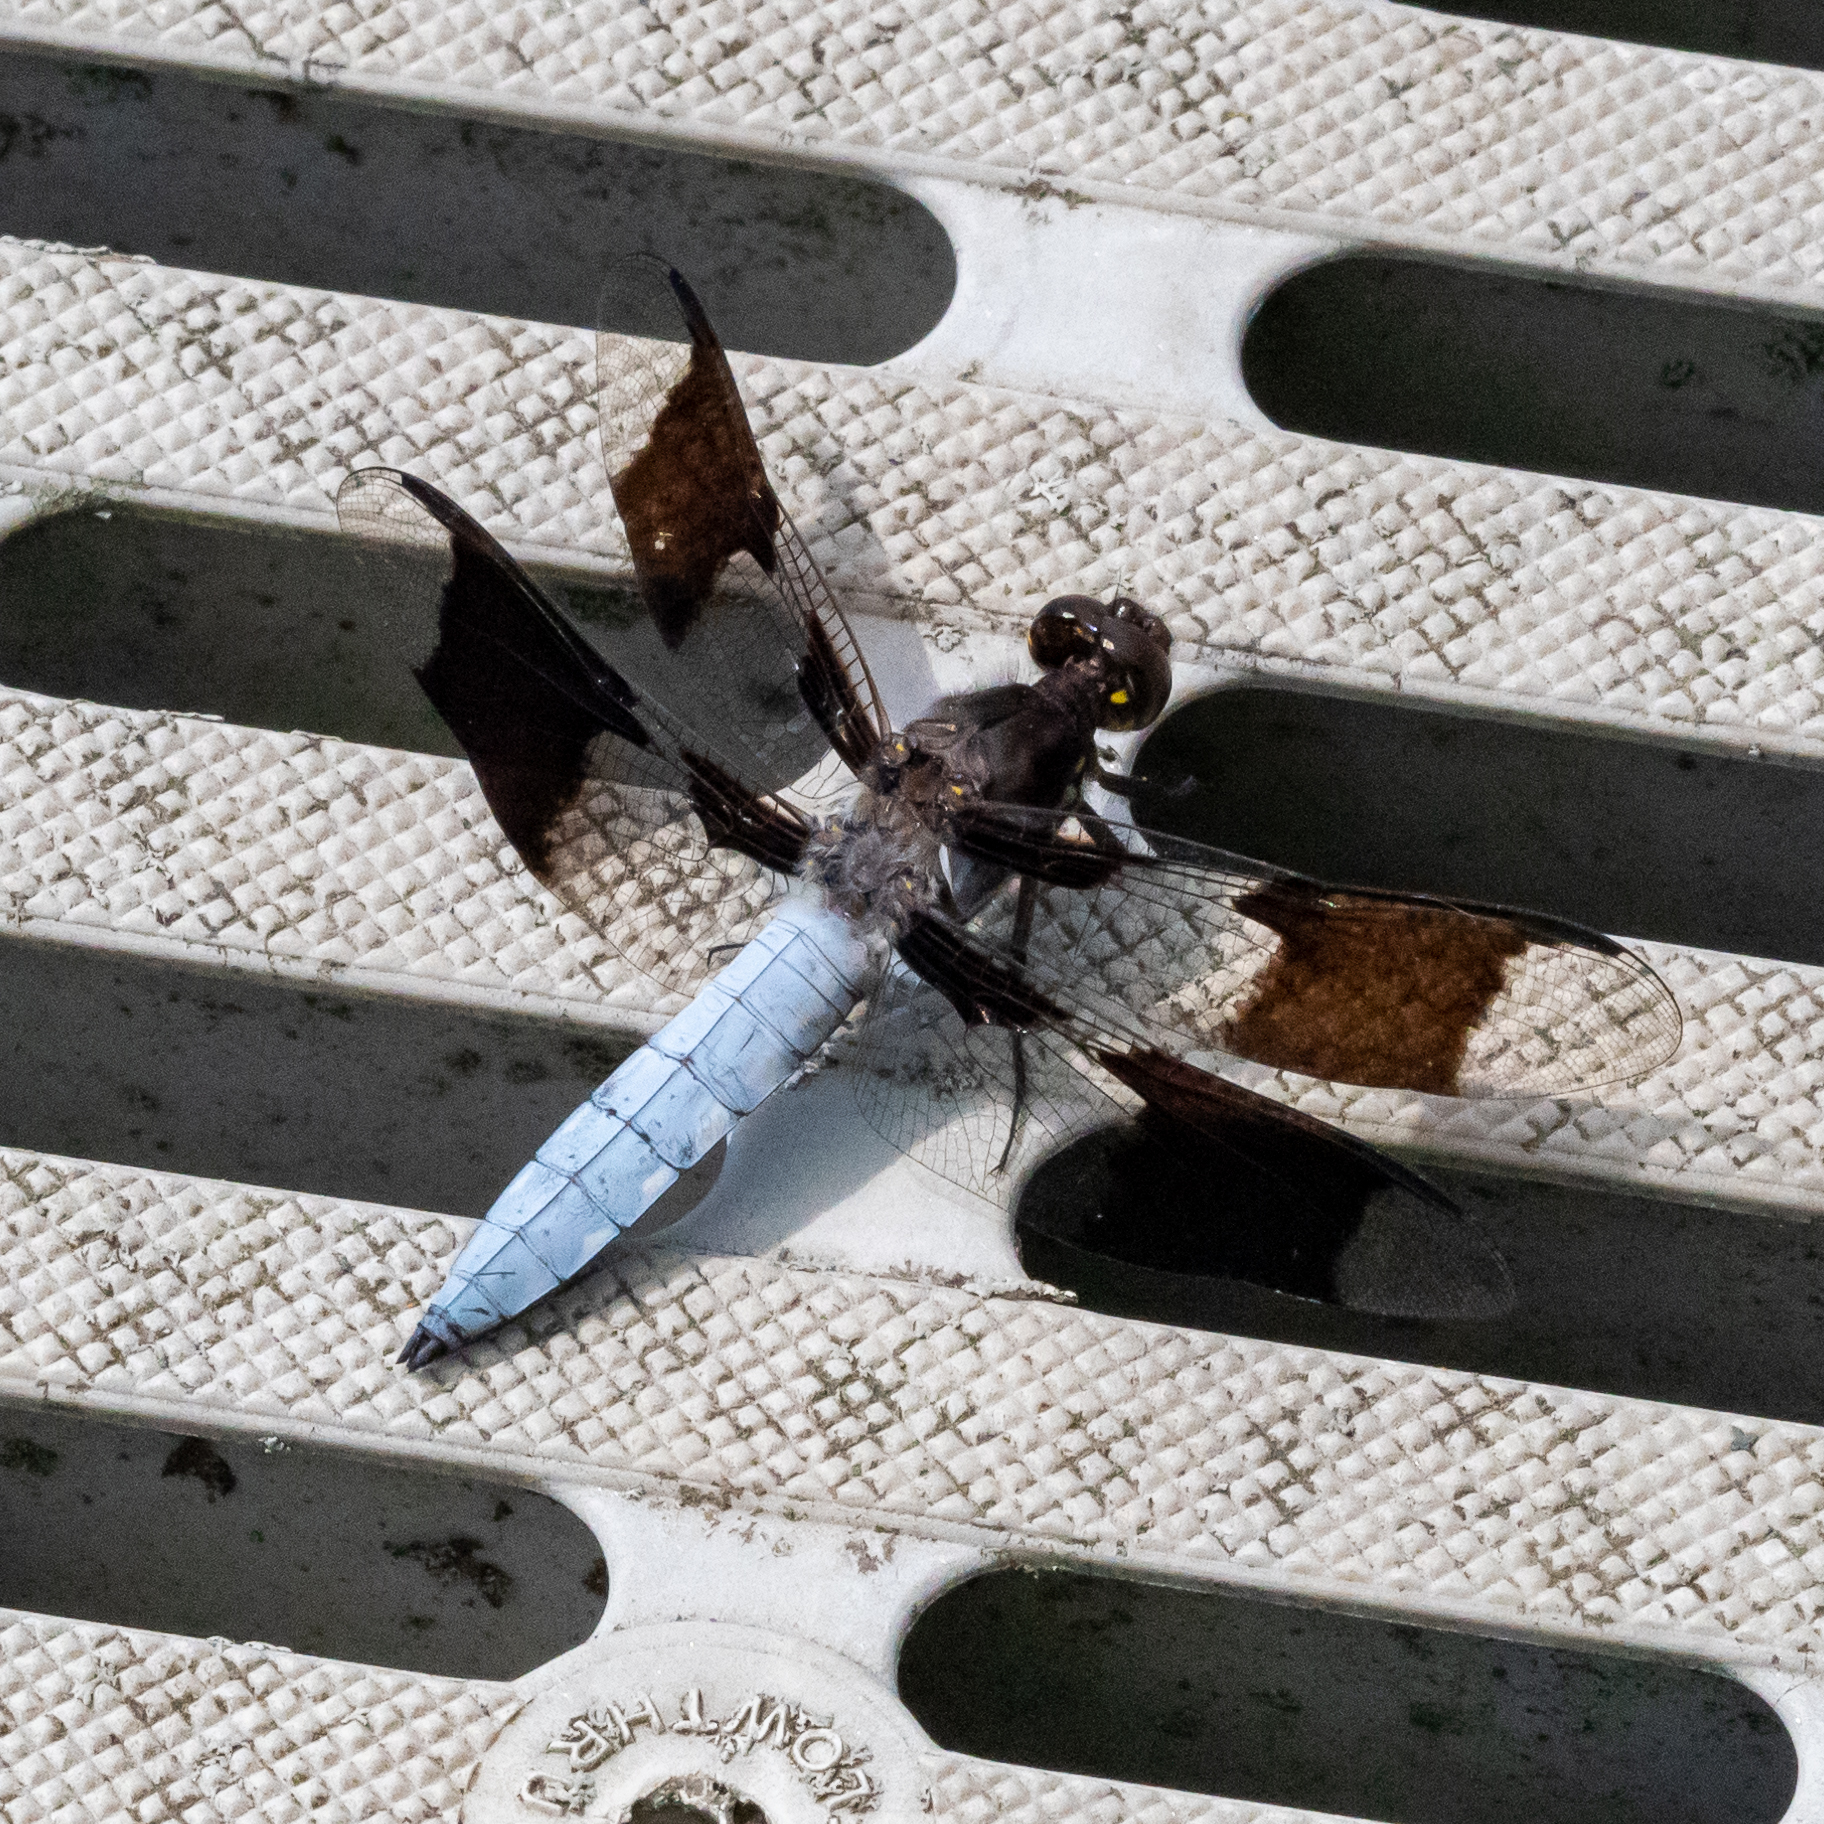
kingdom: Animalia
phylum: Arthropoda
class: Insecta
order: Odonata
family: Libellulidae
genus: Plathemis
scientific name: Plathemis lydia
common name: Common whitetail
